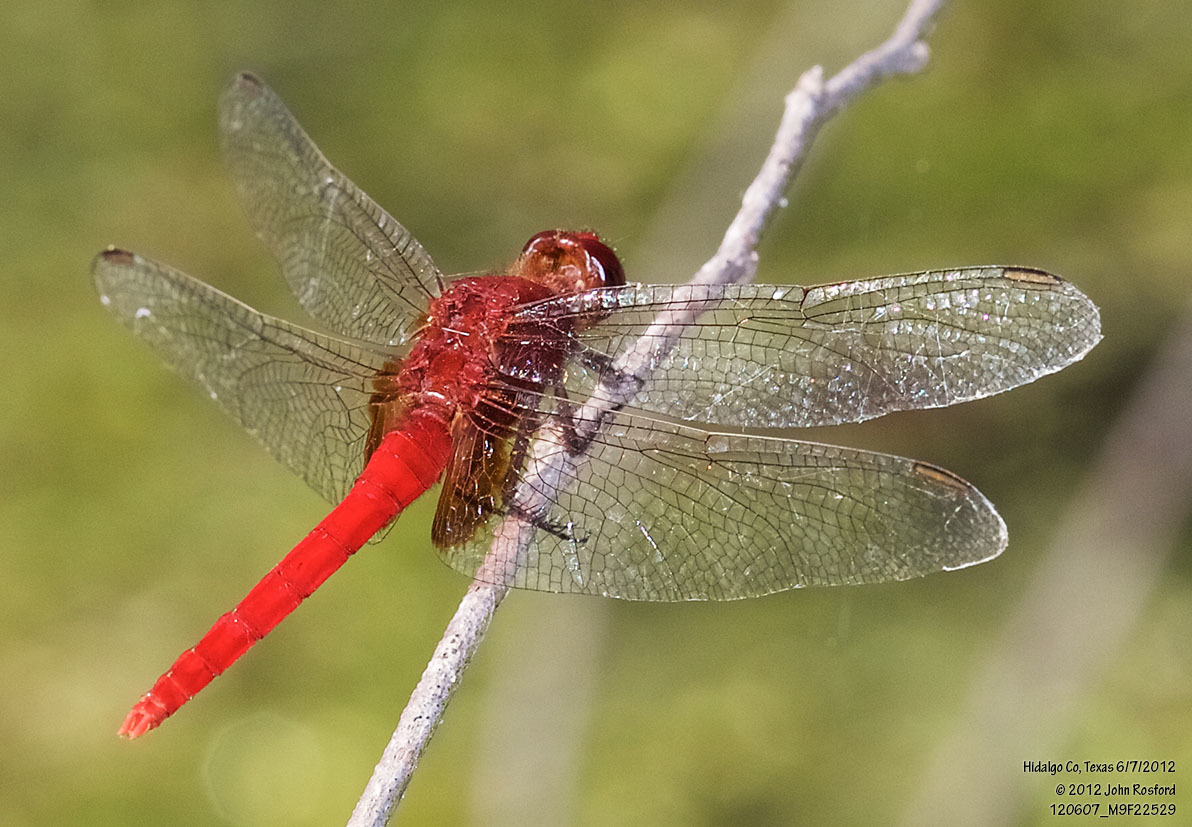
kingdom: Animalia
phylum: Arthropoda
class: Insecta
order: Odonata
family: Libellulidae
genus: Erythemis
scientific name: Erythemis mithroides
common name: Claret pondhawk
